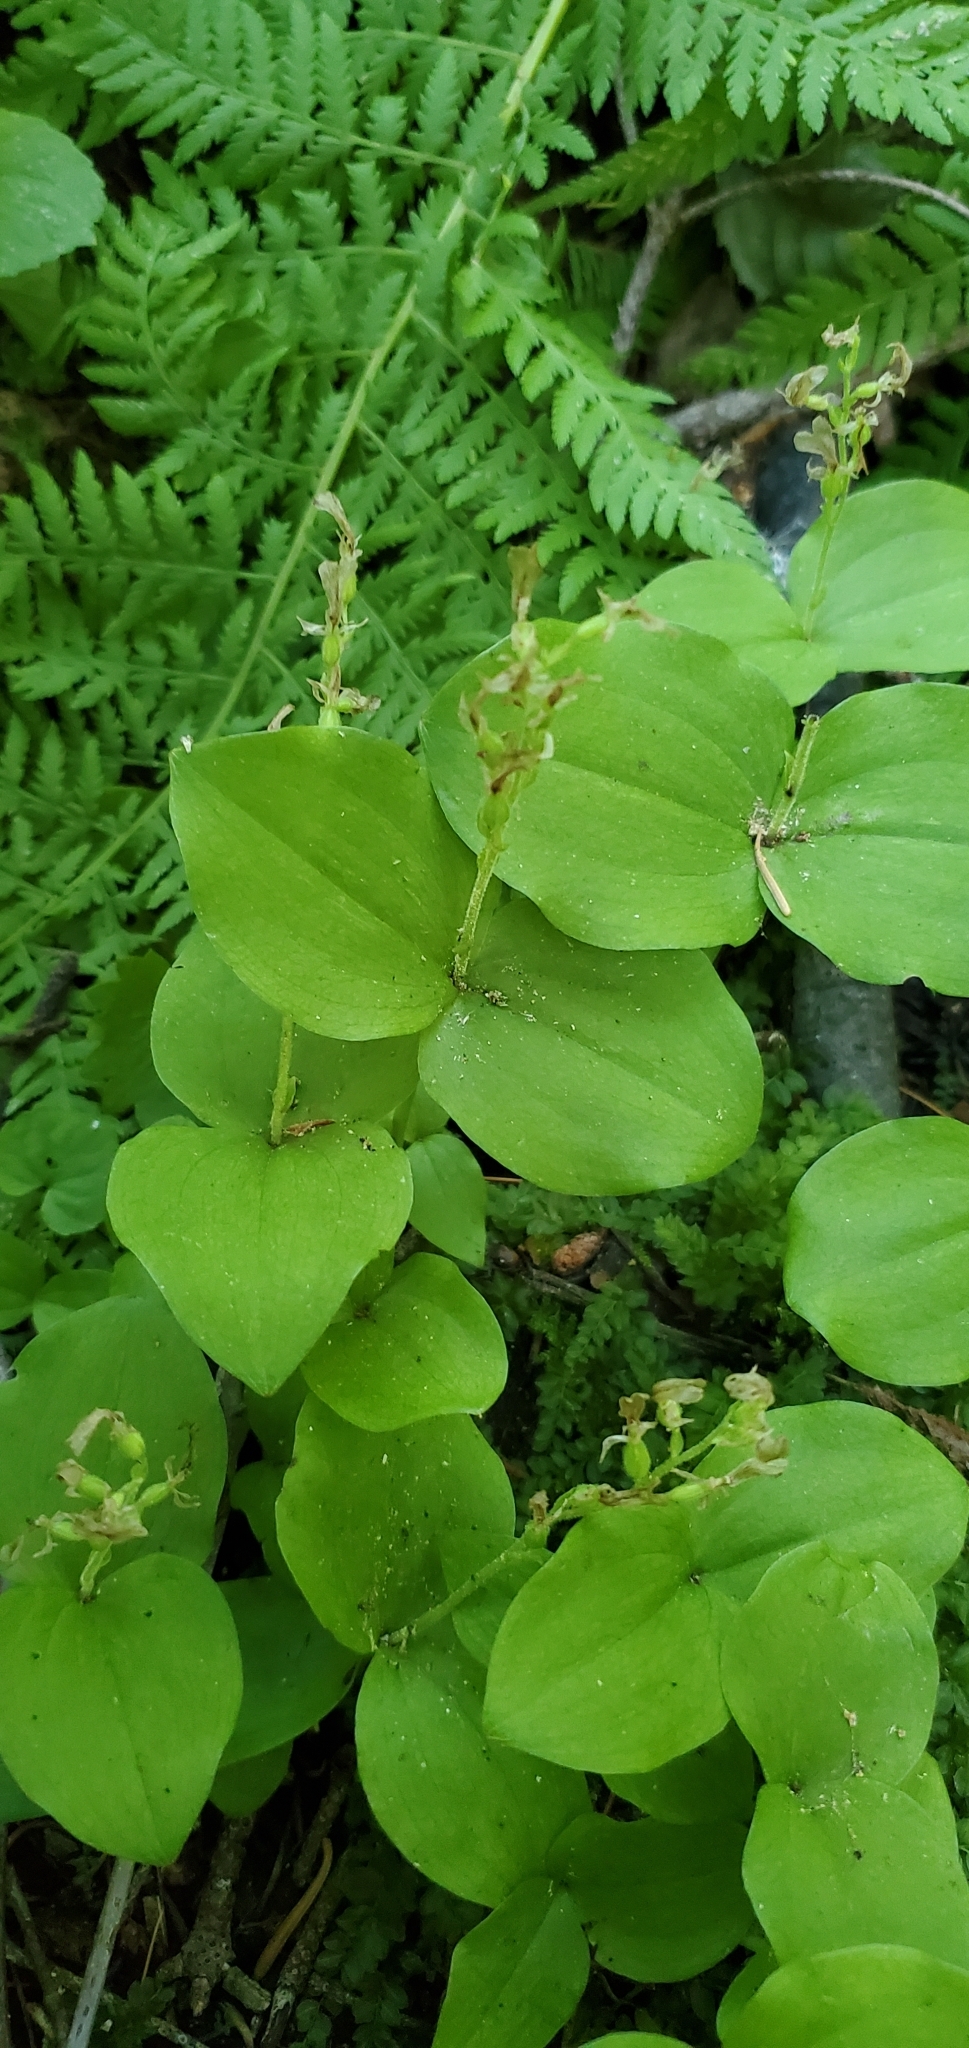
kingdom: Plantae
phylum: Tracheophyta
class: Liliopsida
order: Asparagales
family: Orchidaceae
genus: Neottia
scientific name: Neottia convallarioides
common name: Broadleaf twayblade
